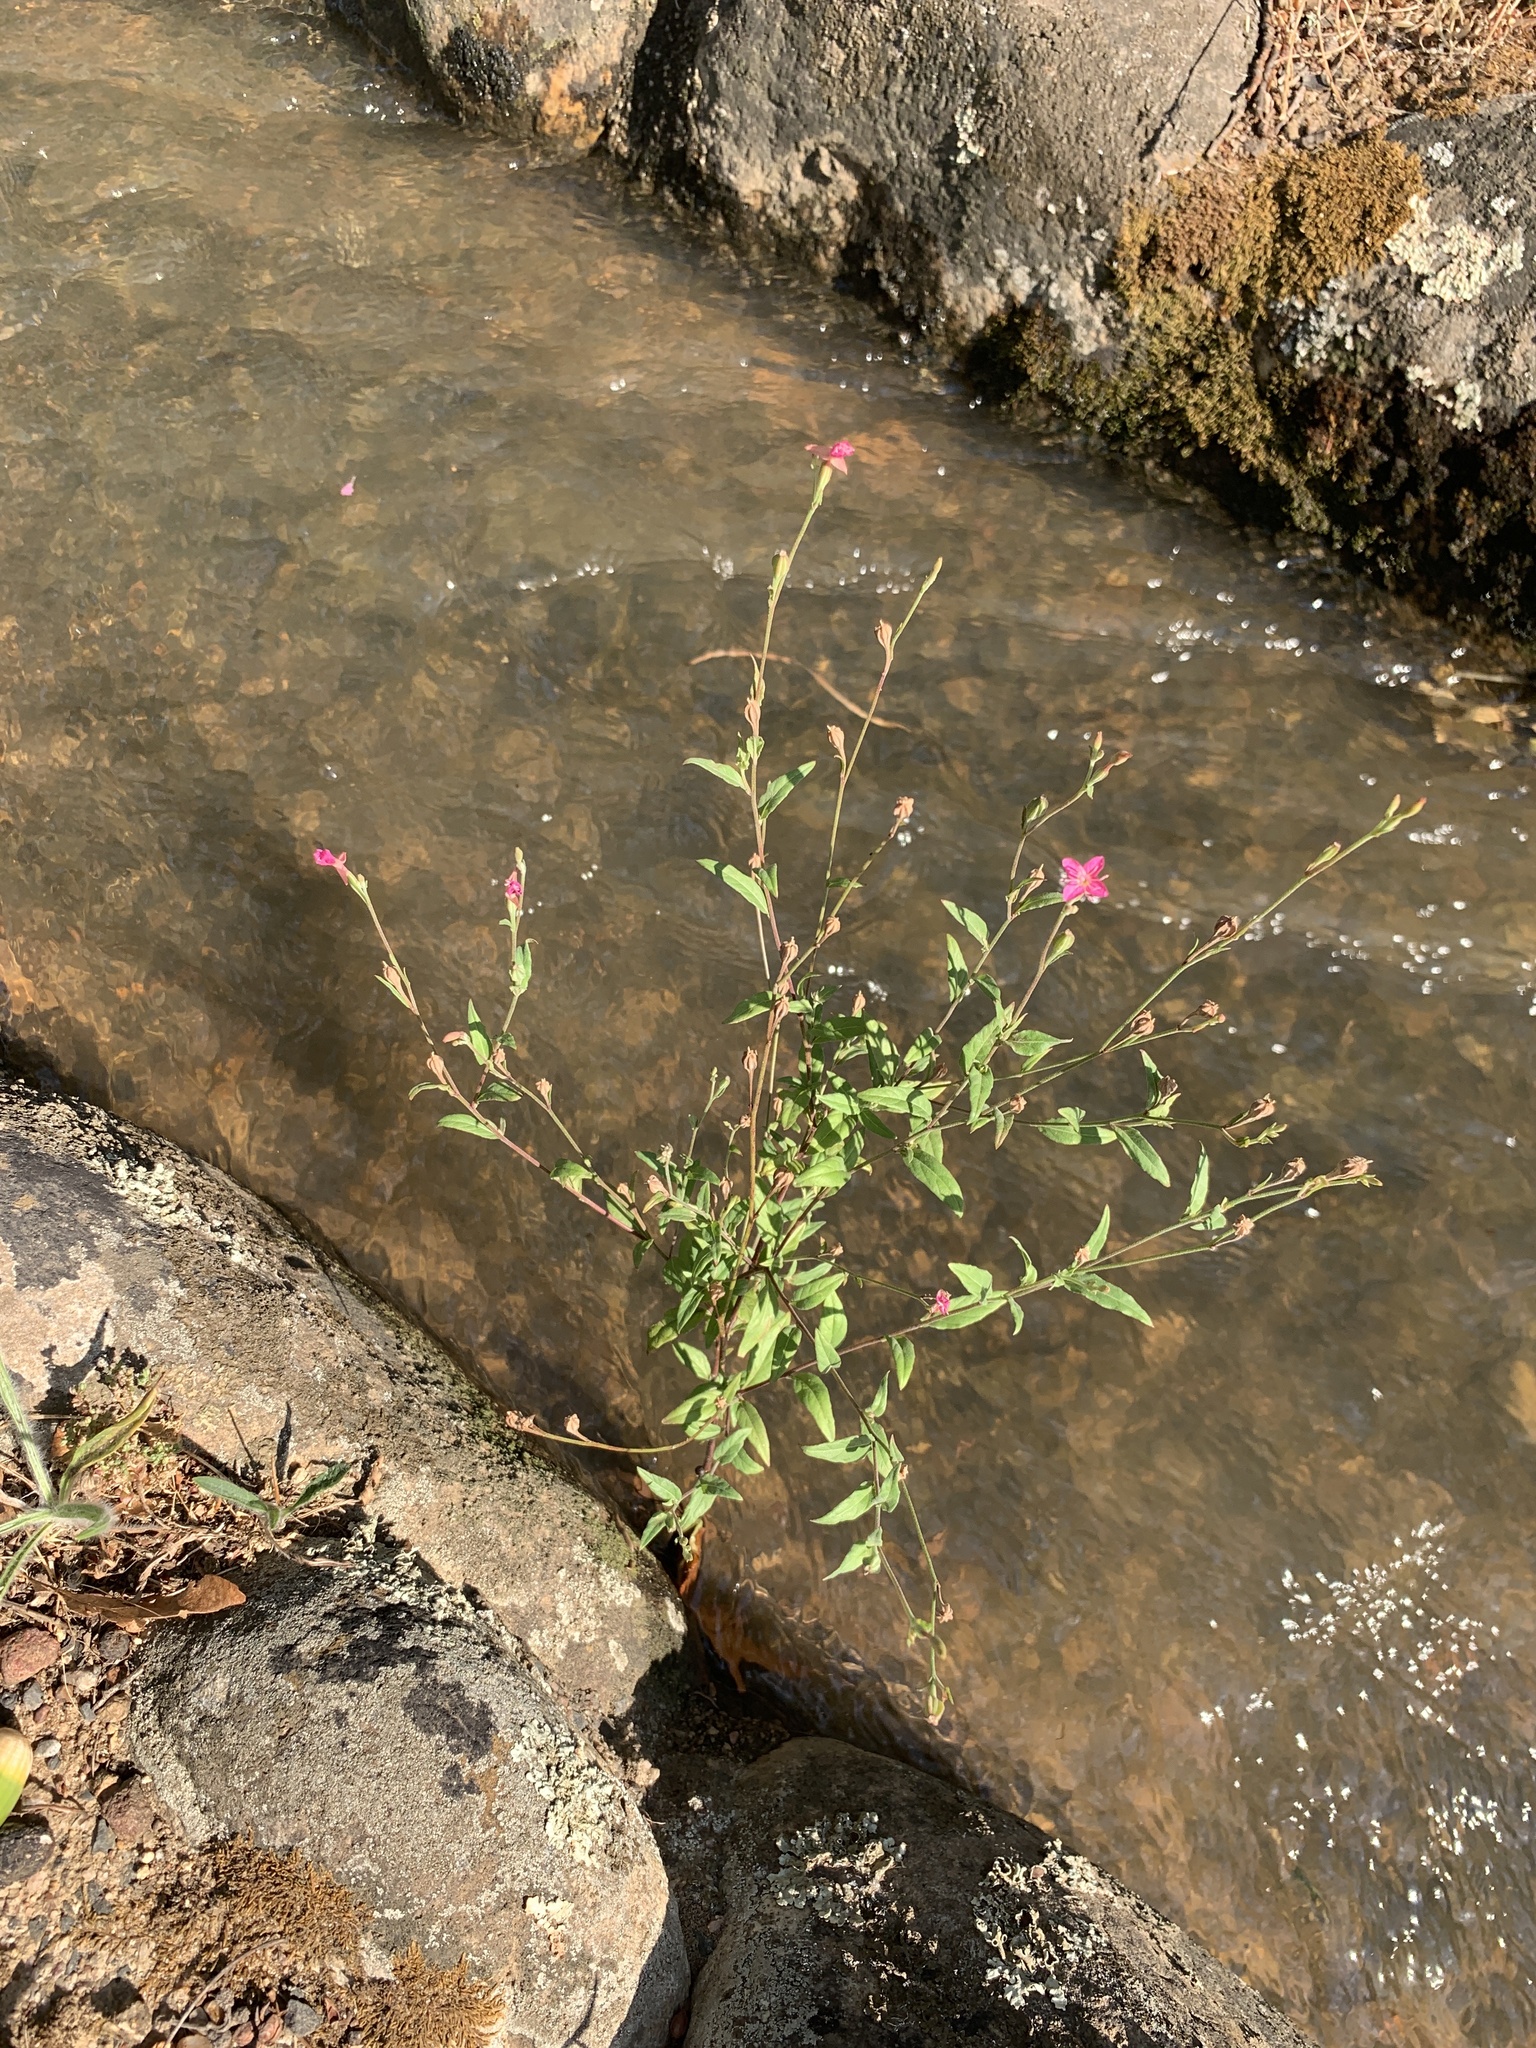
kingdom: Plantae
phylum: Tracheophyta
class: Magnoliopsida
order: Myrtales
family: Onagraceae
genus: Oenothera
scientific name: Oenothera rosea
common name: Rosy evening-primrose
